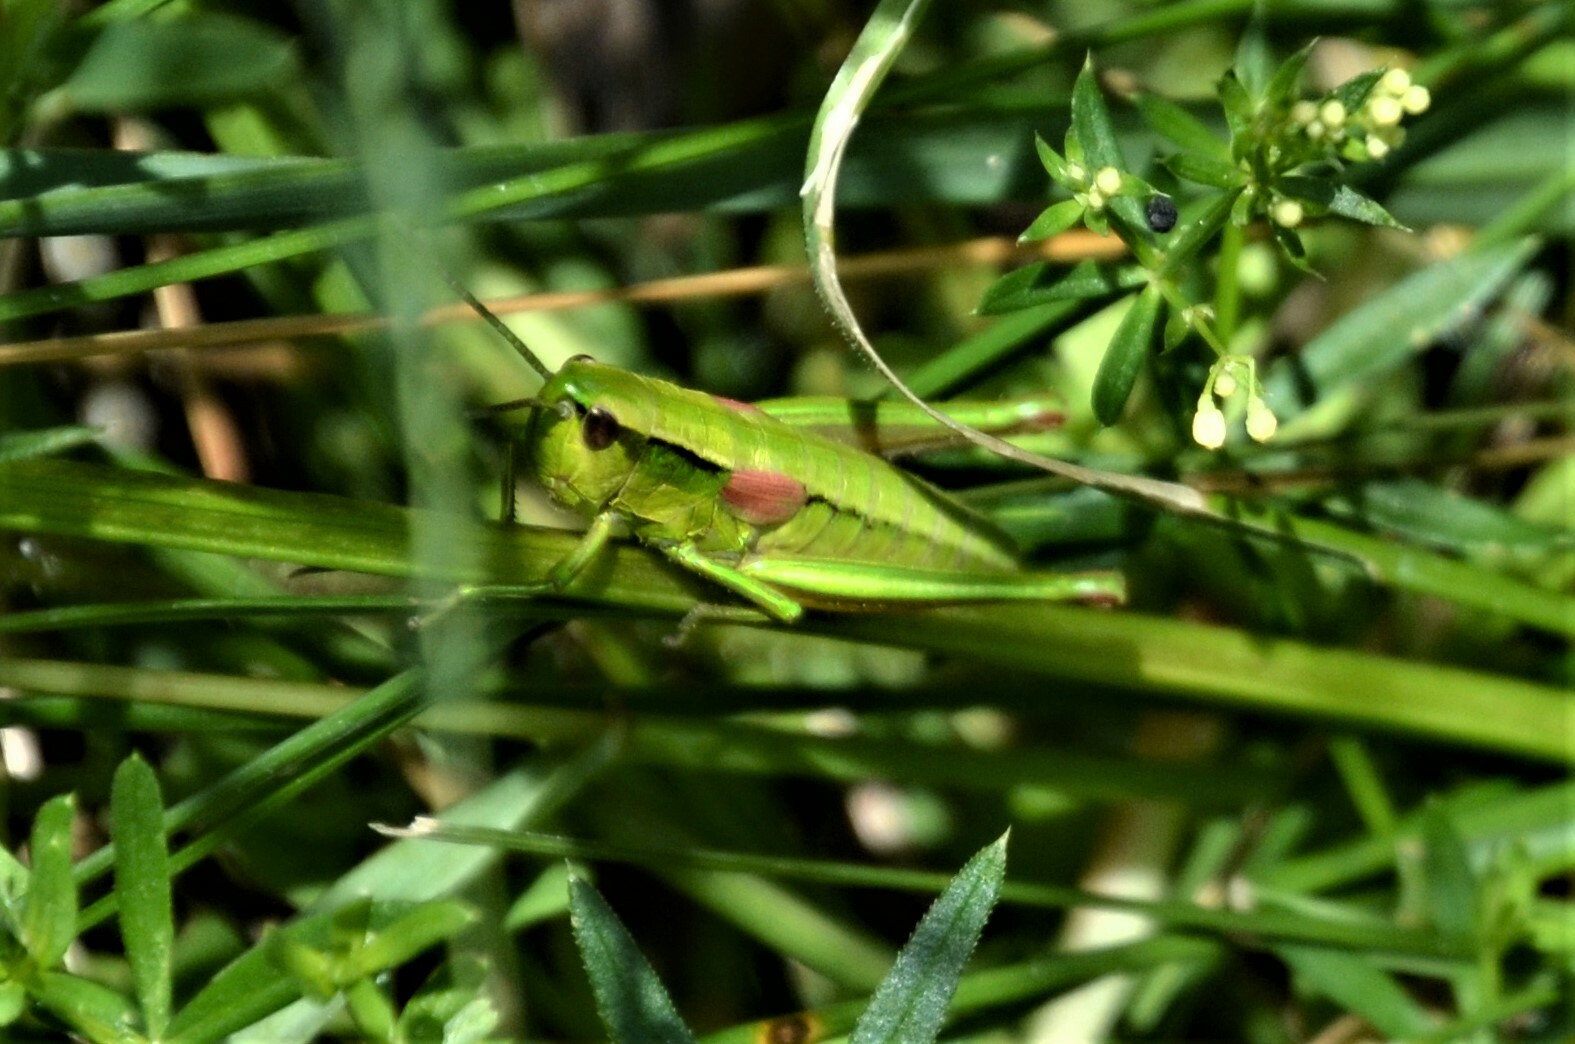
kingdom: Animalia
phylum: Arthropoda
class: Insecta
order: Orthoptera
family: Acrididae
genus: Euthystira
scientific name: Euthystira brachyptera
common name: Small gold grasshopper
